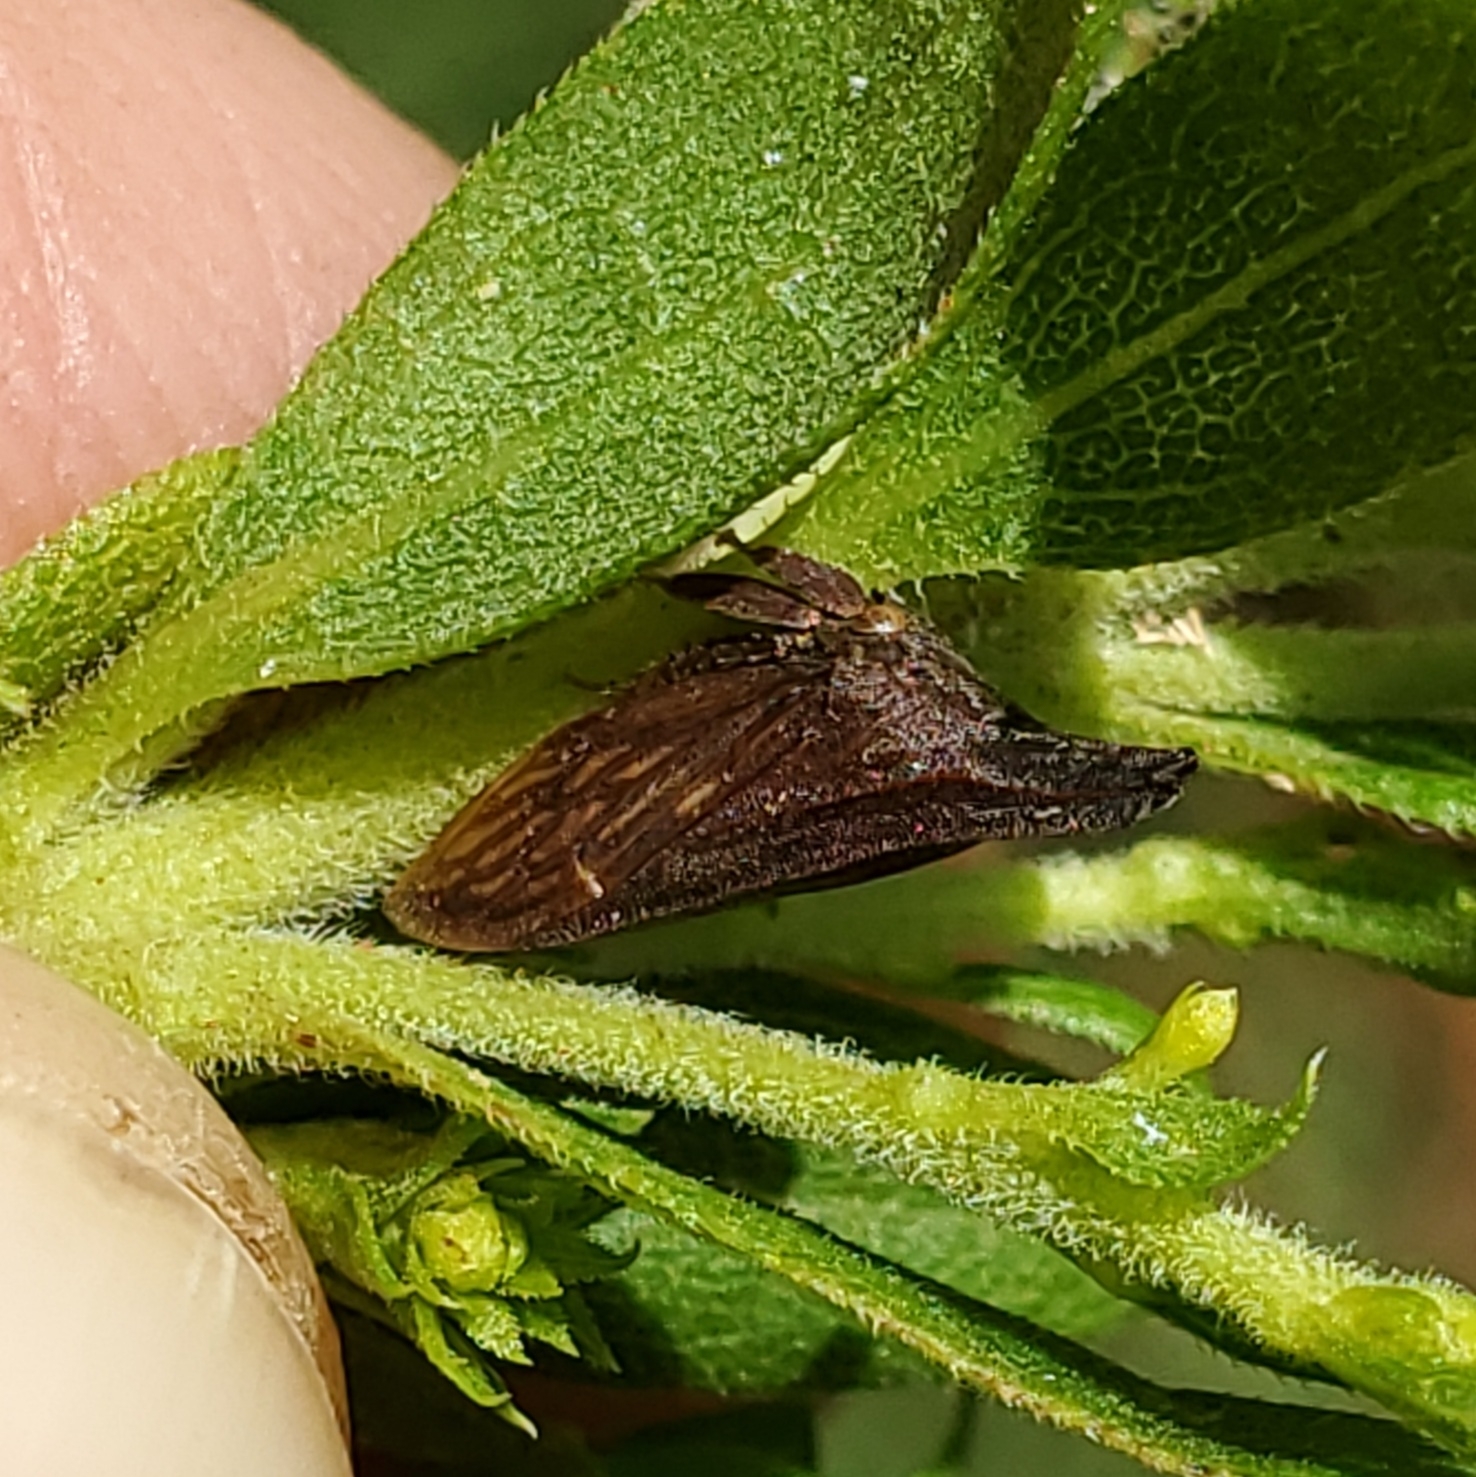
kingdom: Animalia
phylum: Arthropoda
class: Insecta
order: Hemiptera
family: Membracidae
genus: Enchenopa
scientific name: Enchenopa latipes
